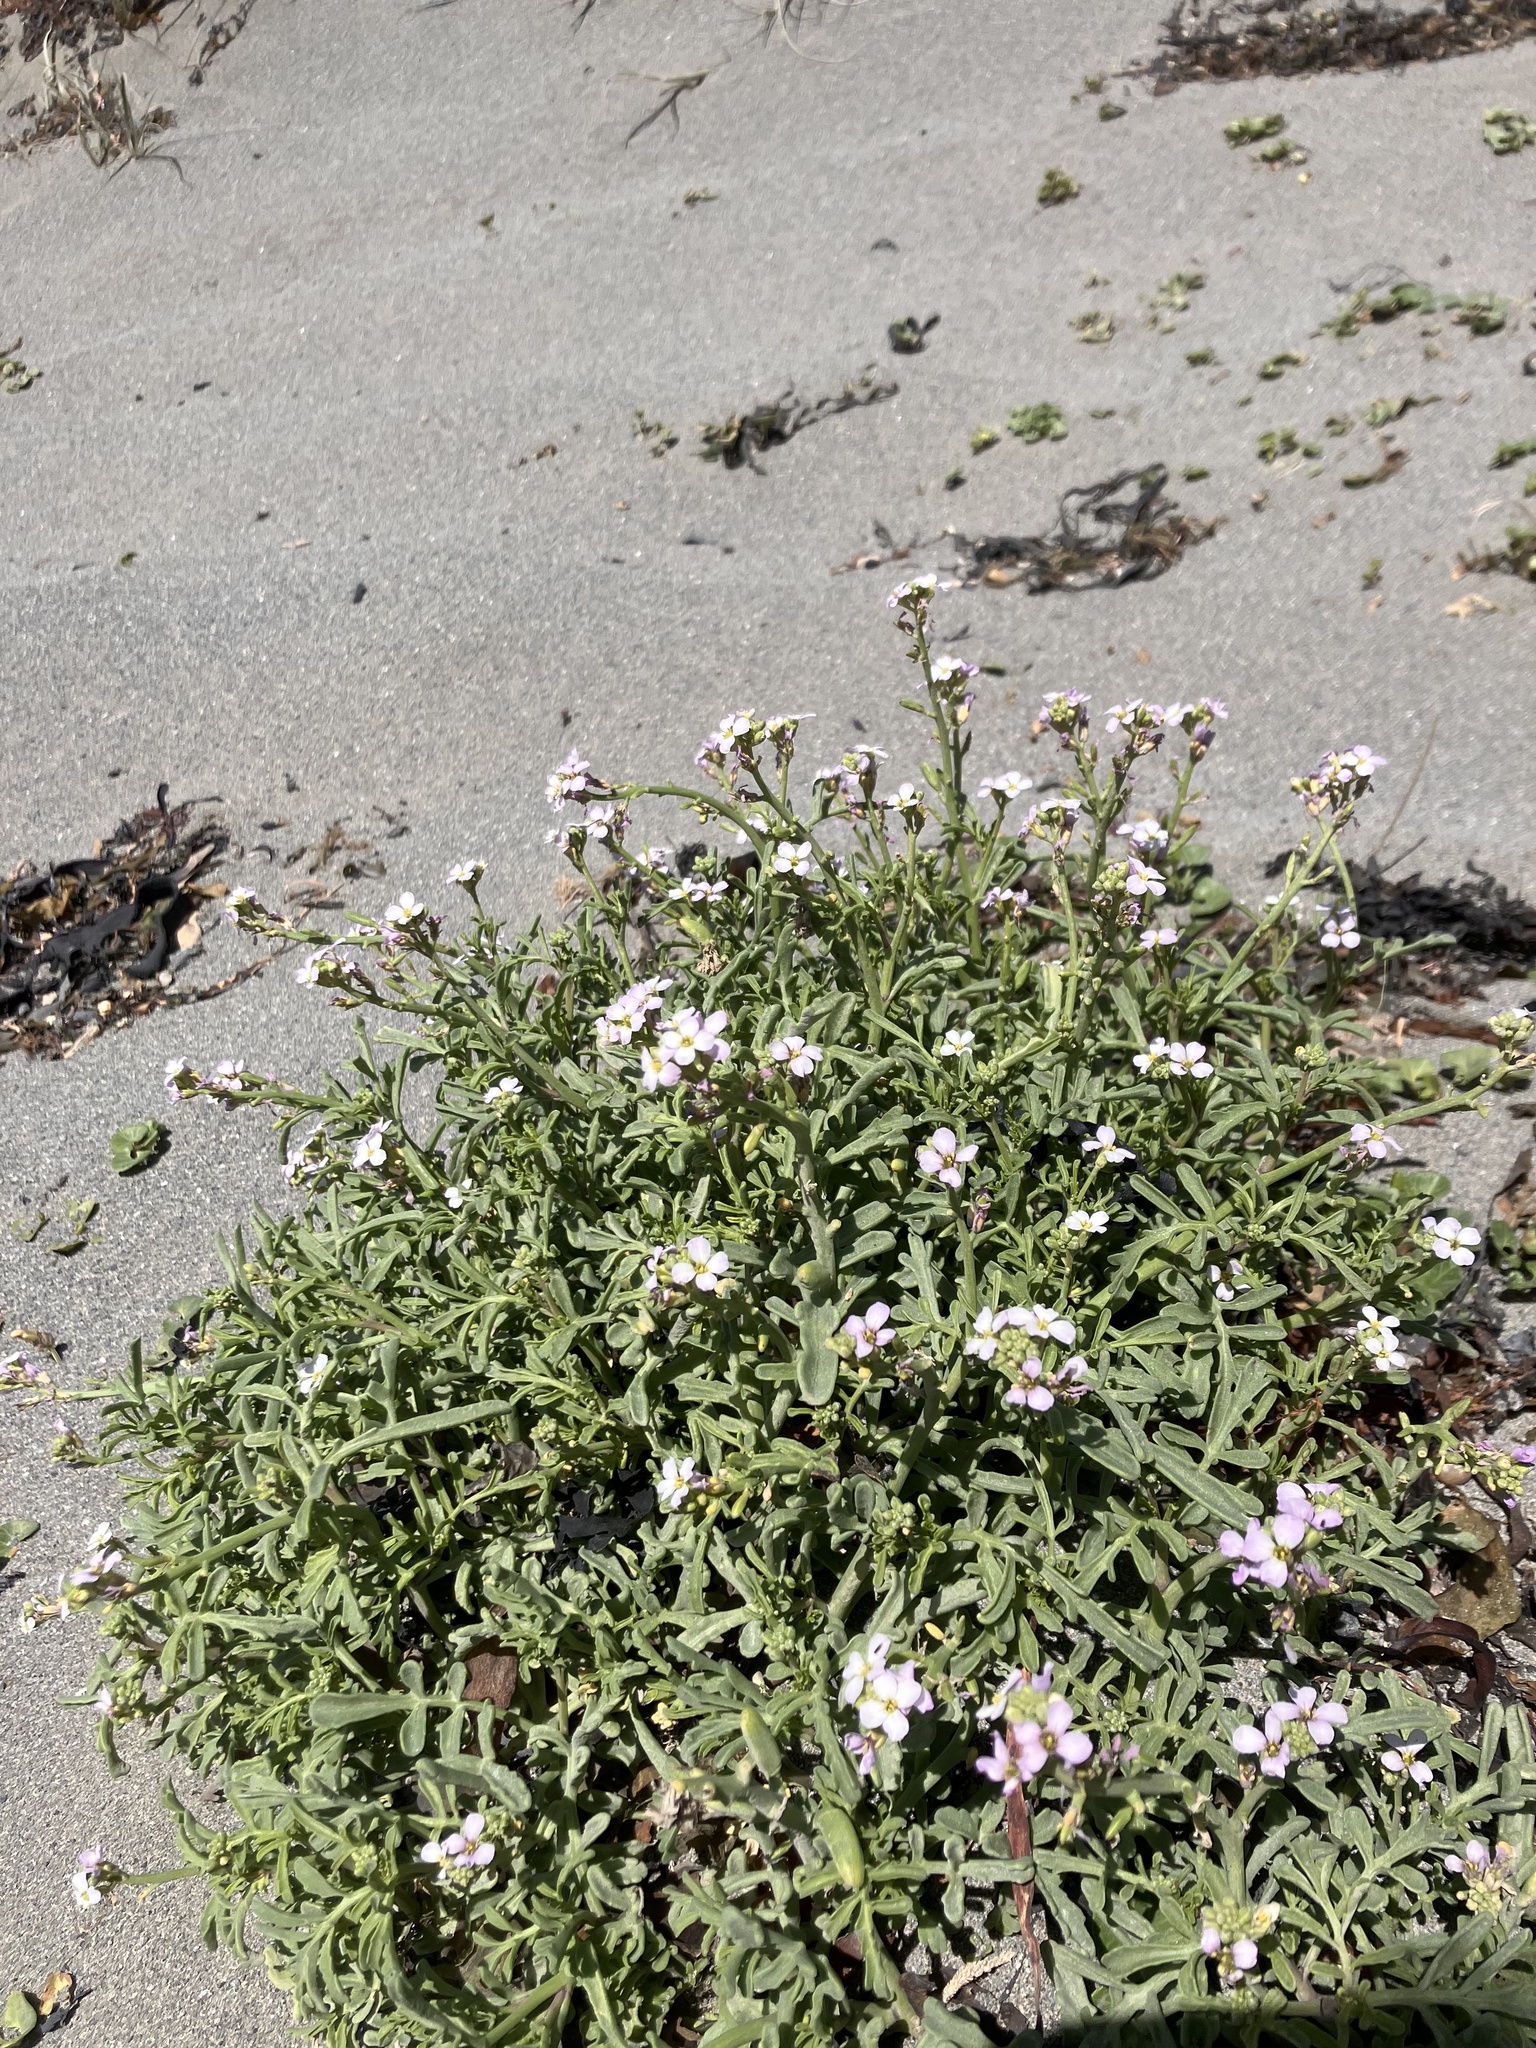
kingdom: Plantae
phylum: Tracheophyta
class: Magnoliopsida
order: Brassicales
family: Brassicaceae
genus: Cakile
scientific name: Cakile maritima
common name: Sea rocket
